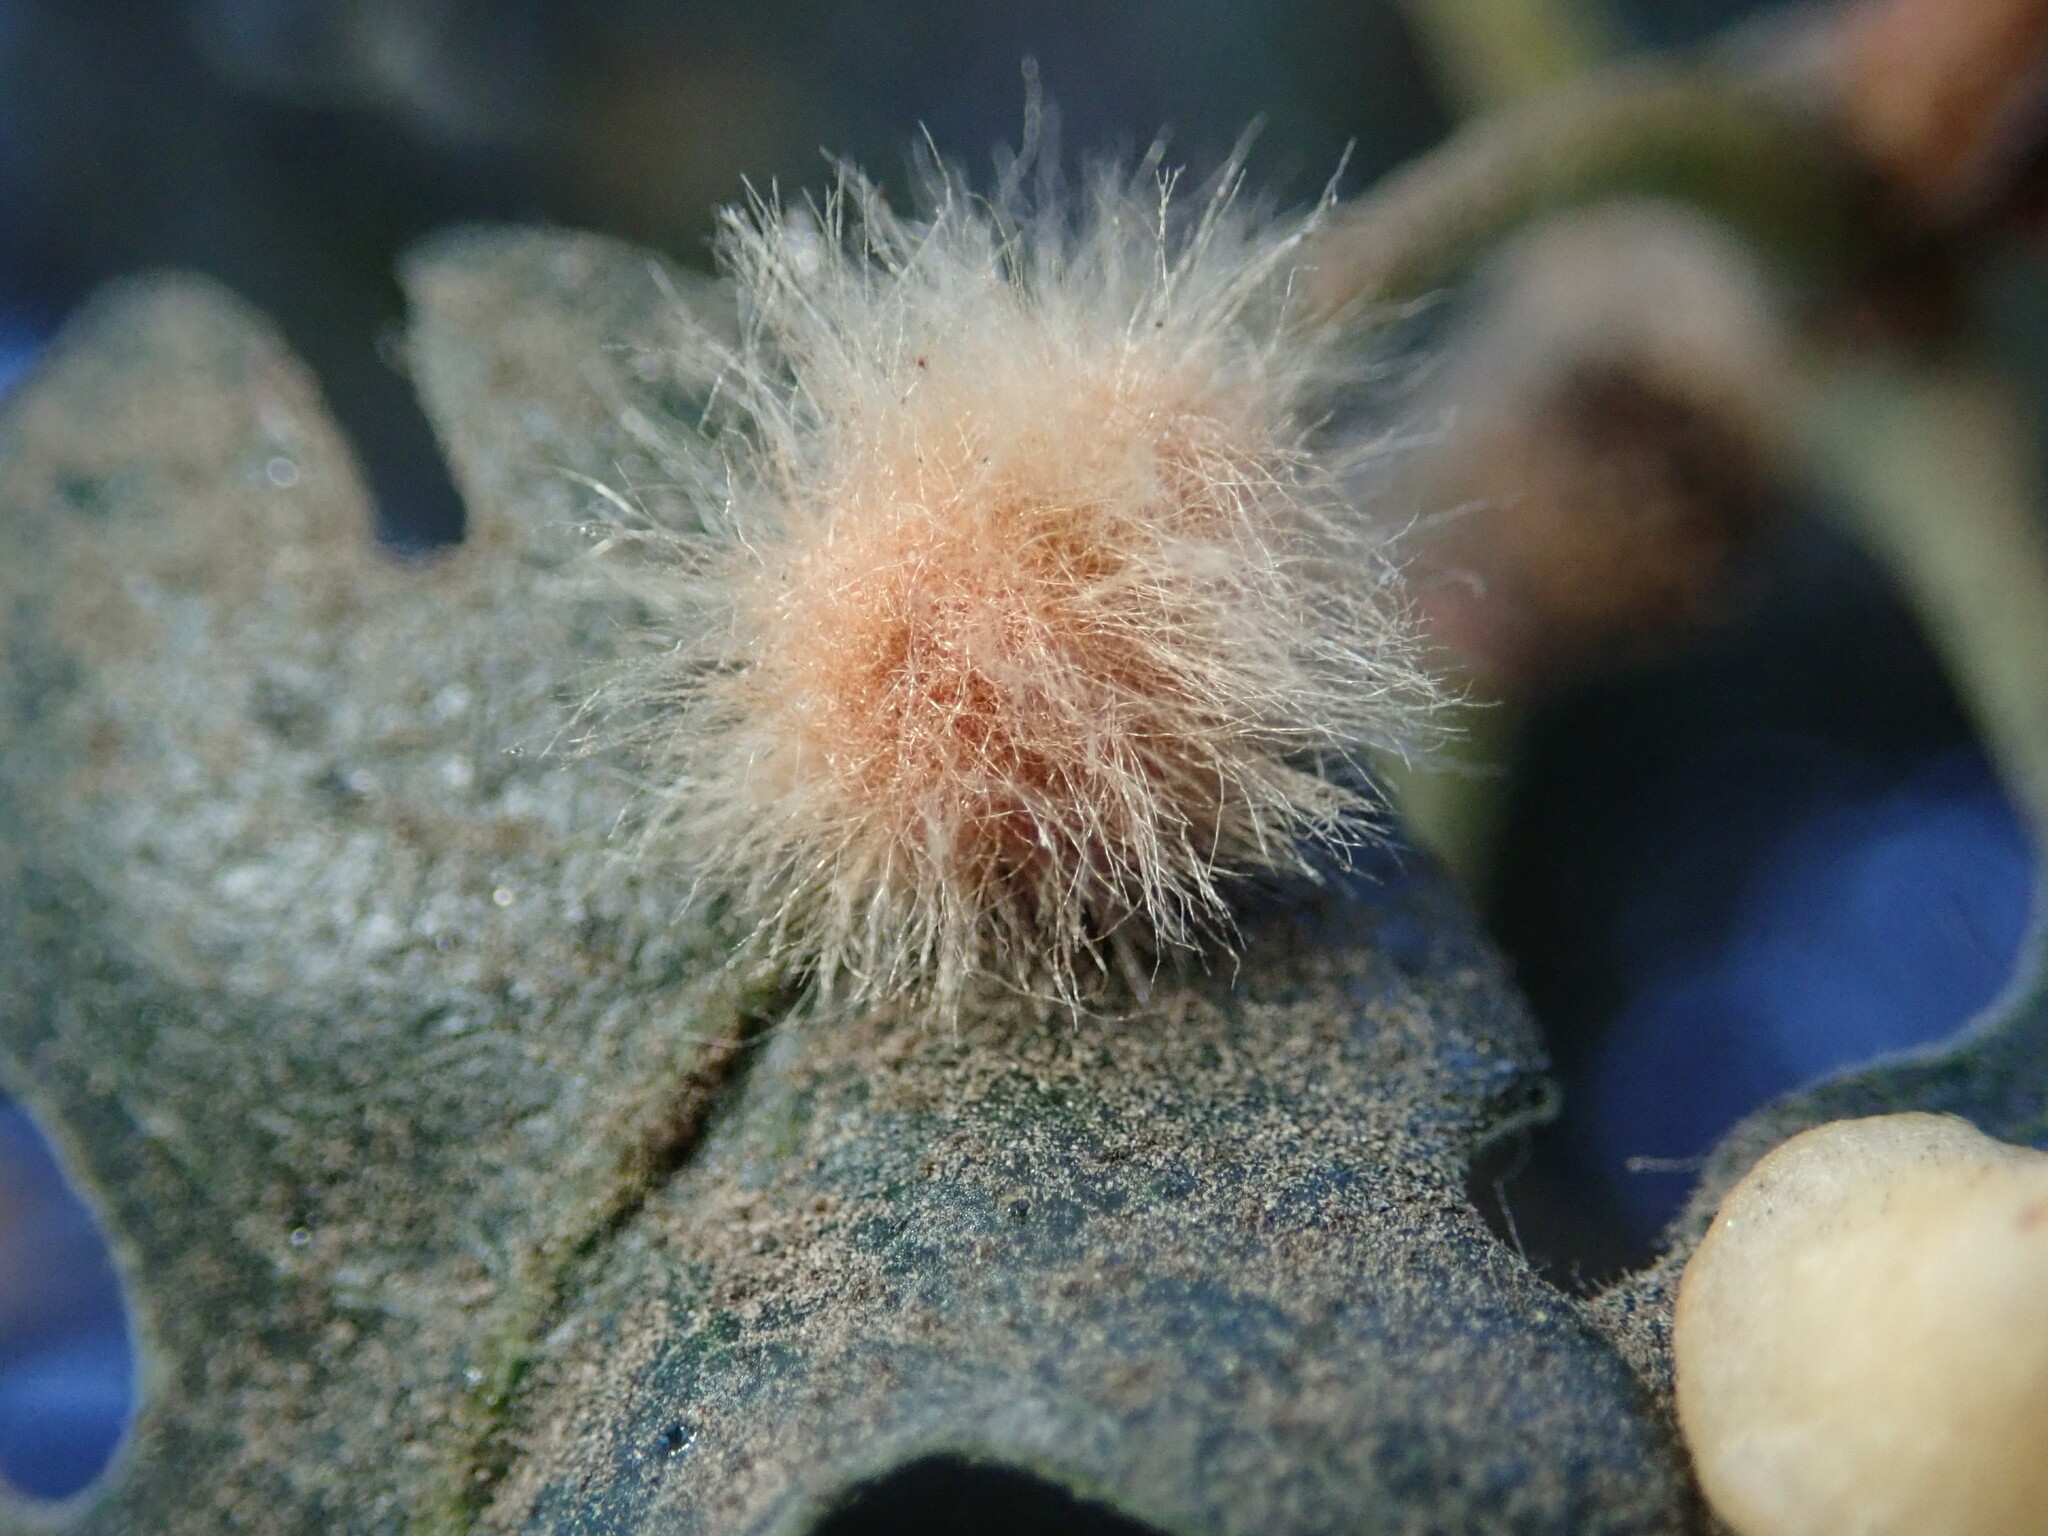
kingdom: Animalia
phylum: Arthropoda
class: Insecta
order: Hymenoptera
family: Cynipidae
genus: Andricus
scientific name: Andricus Druon fullawayi
